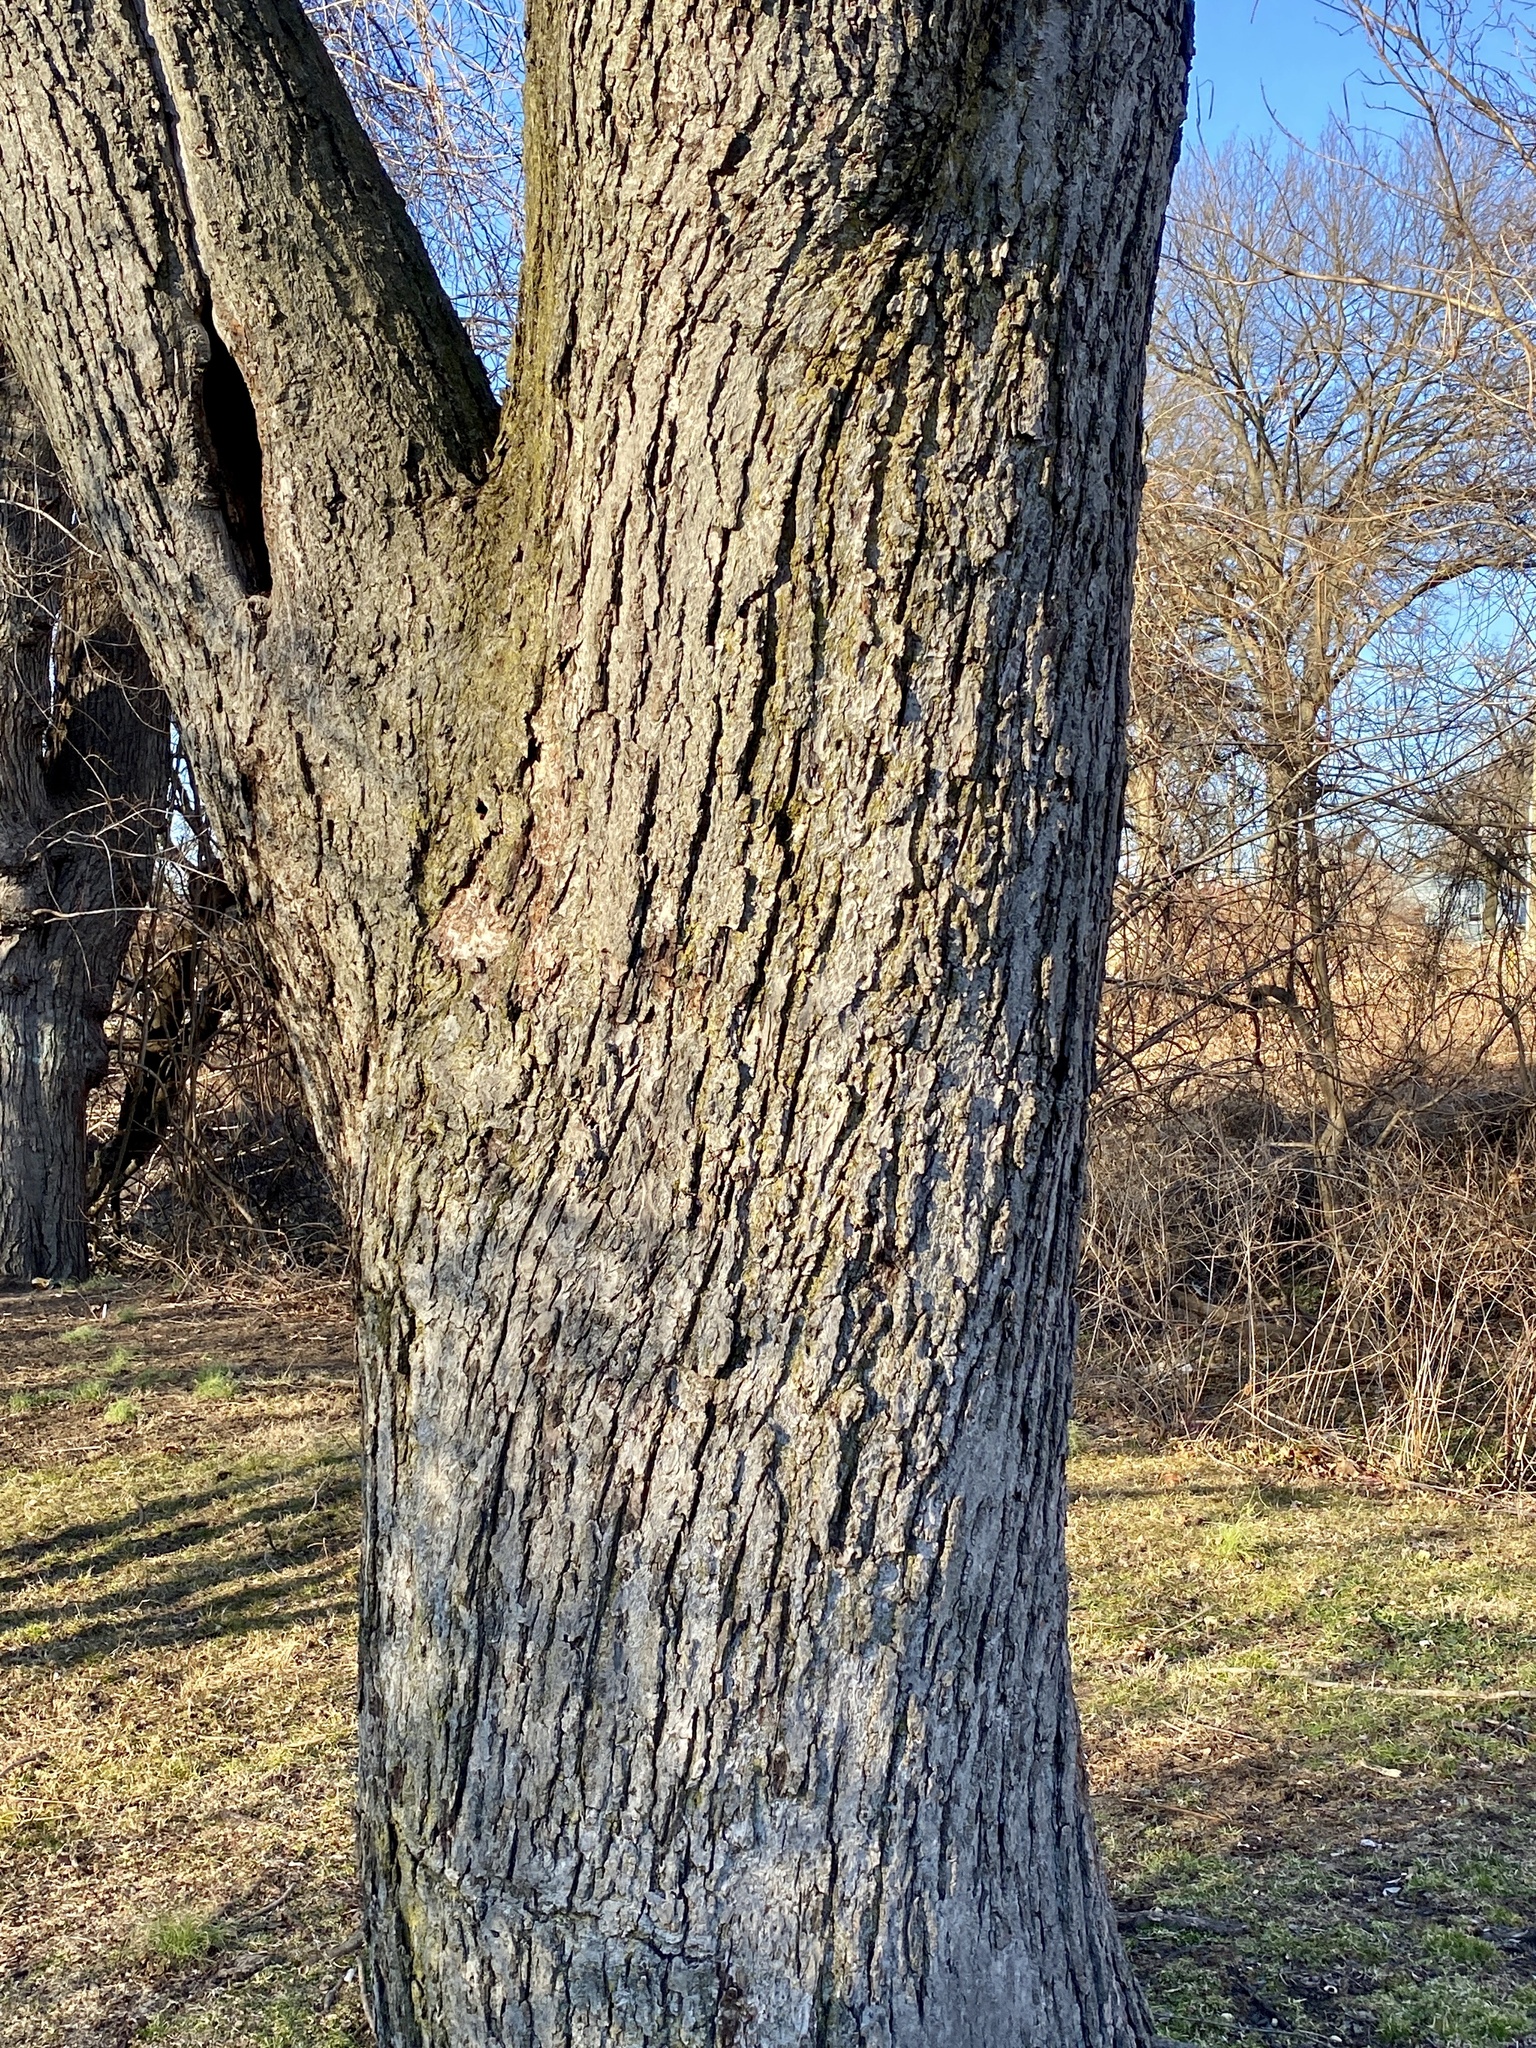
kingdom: Plantae
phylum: Tracheophyta
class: Magnoliopsida
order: Sapindales
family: Sapindaceae
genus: Acer
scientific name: Acer rubrum
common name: Red maple
